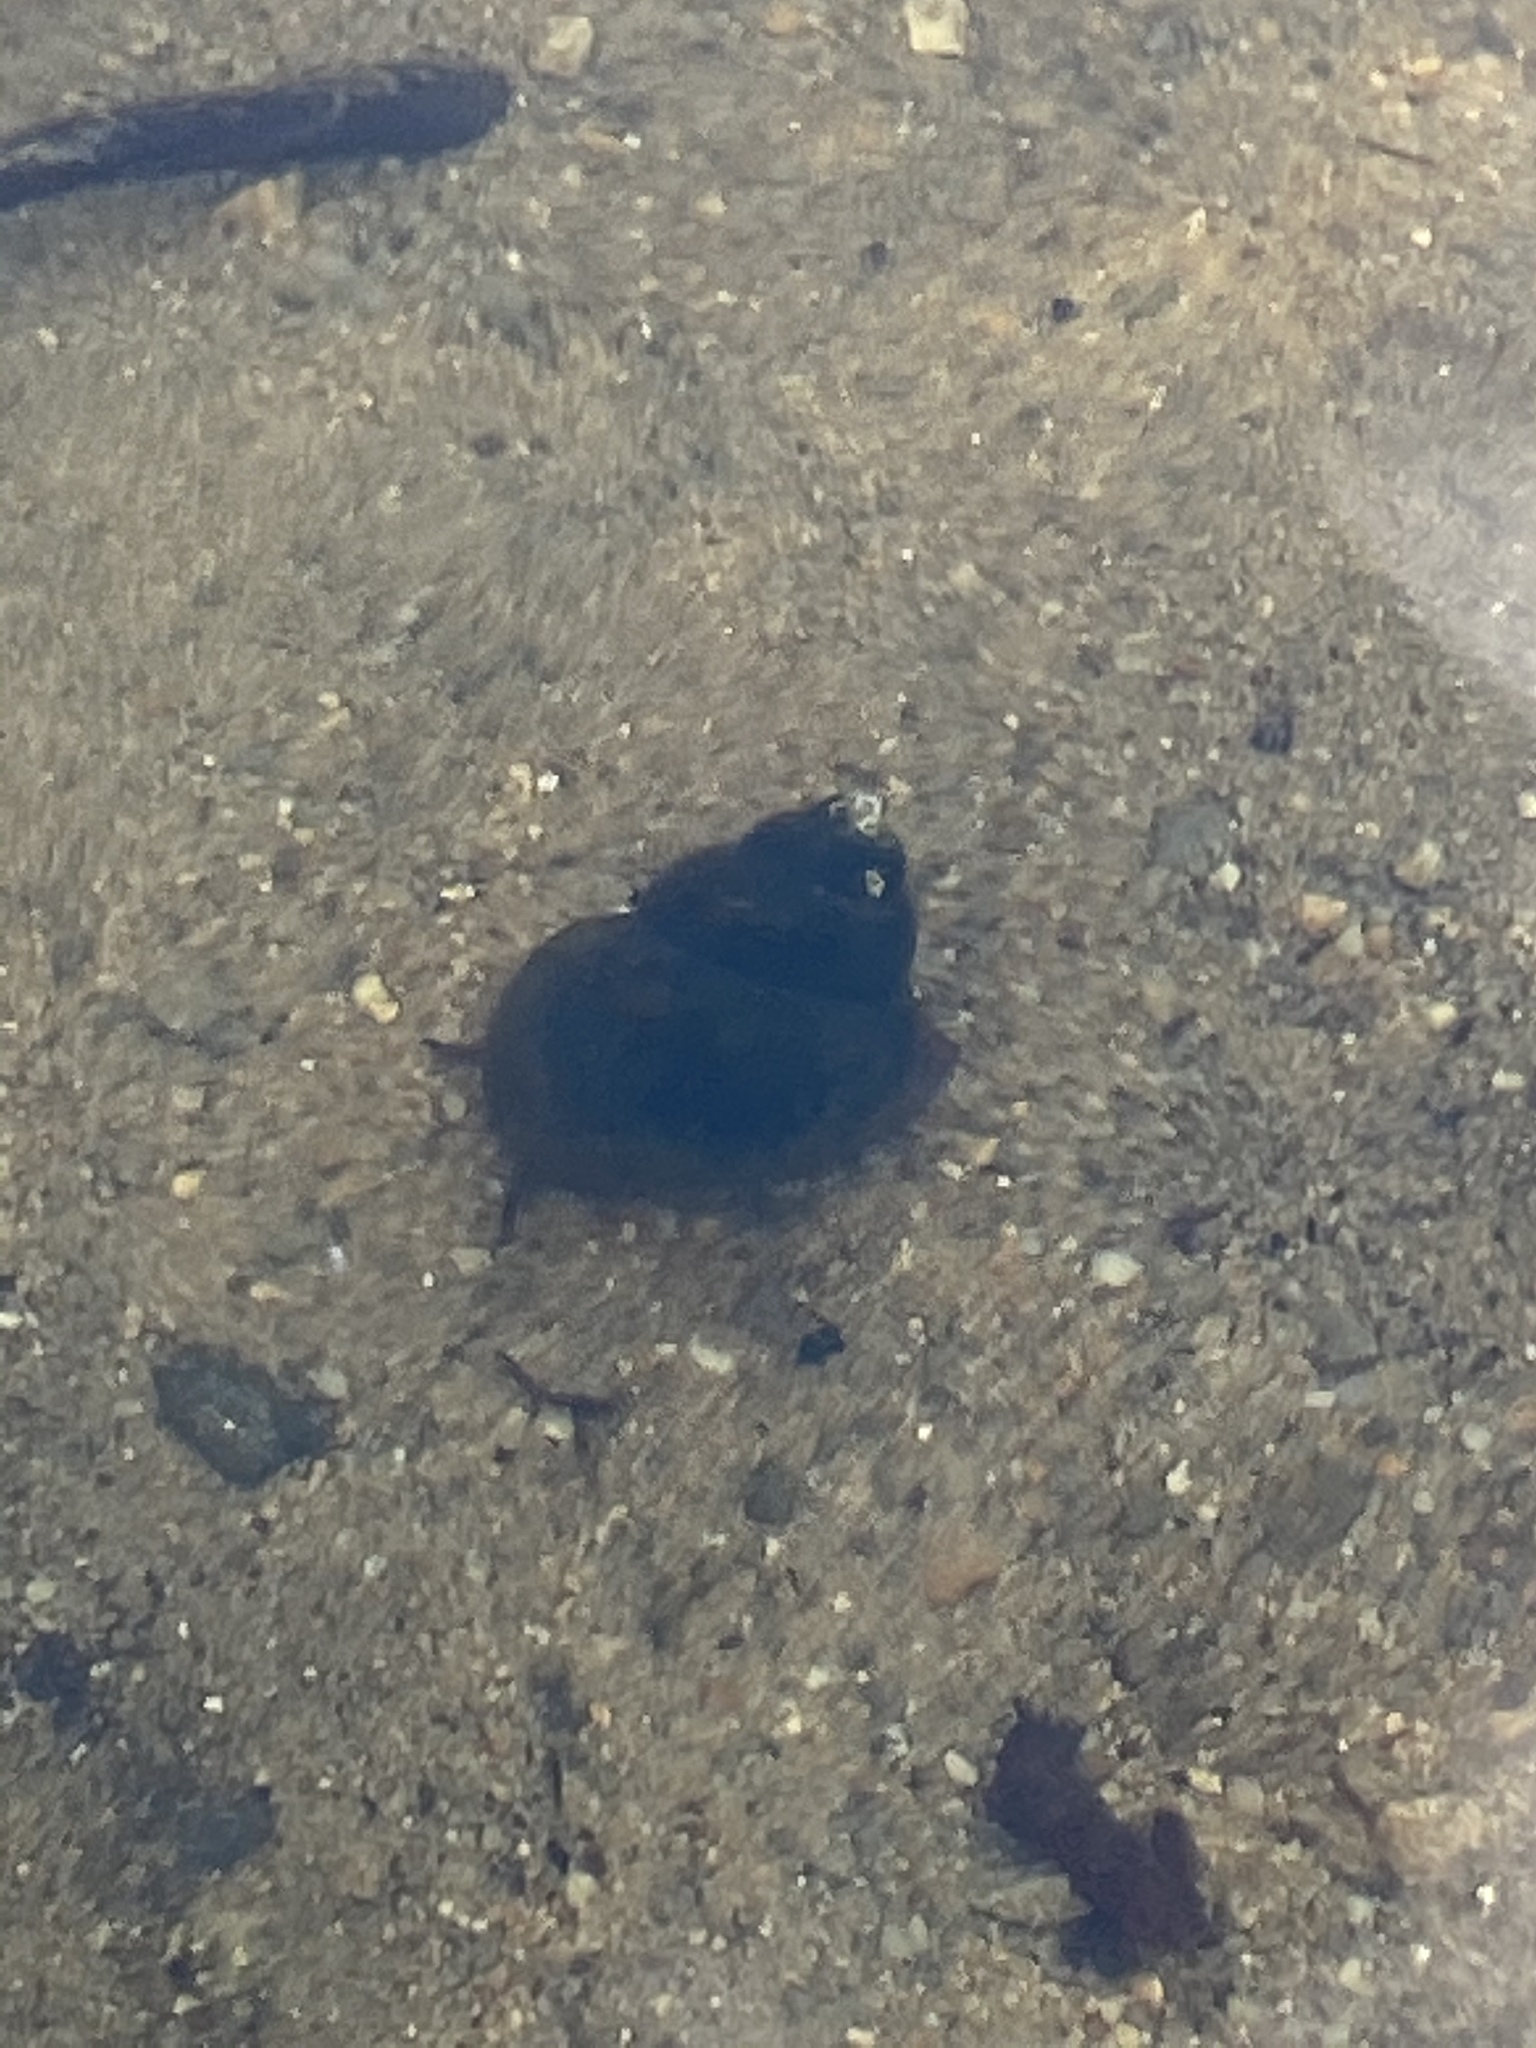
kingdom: Animalia
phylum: Mollusca
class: Gastropoda
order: Architaenioglossa
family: Viviparidae
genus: Cipangopaludina
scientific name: Cipangopaludina chinensis
